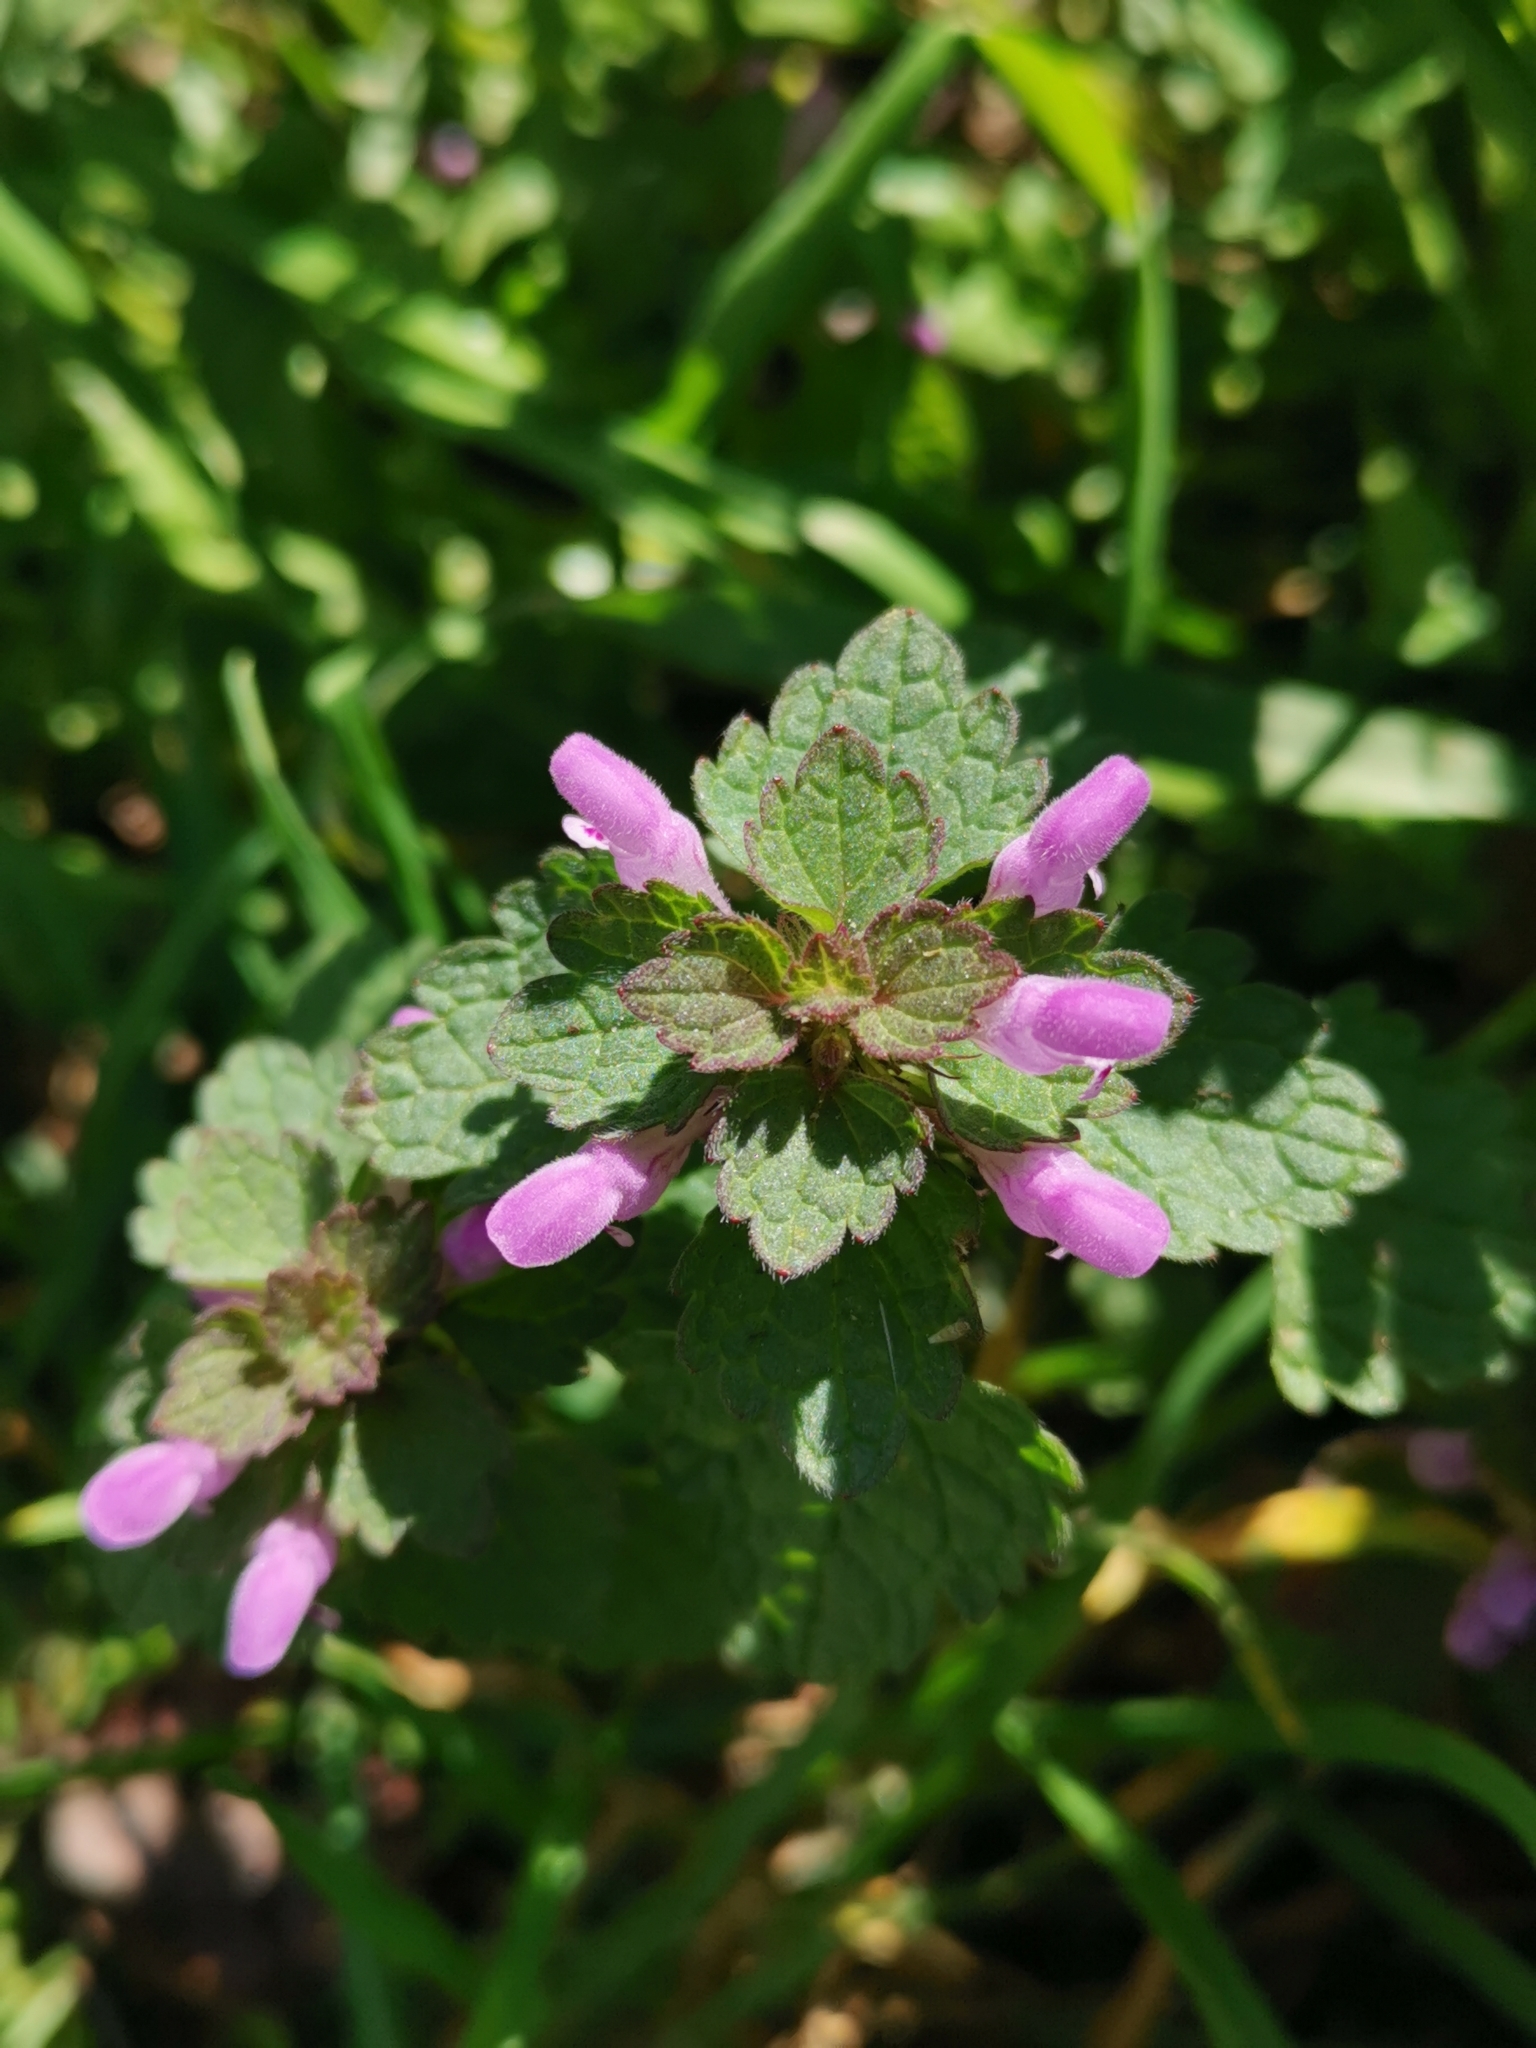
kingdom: Plantae
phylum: Tracheophyta
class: Magnoliopsida
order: Lamiales
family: Lamiaceae
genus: Lamium
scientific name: Lamium purpureum
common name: Red dead-nettle
